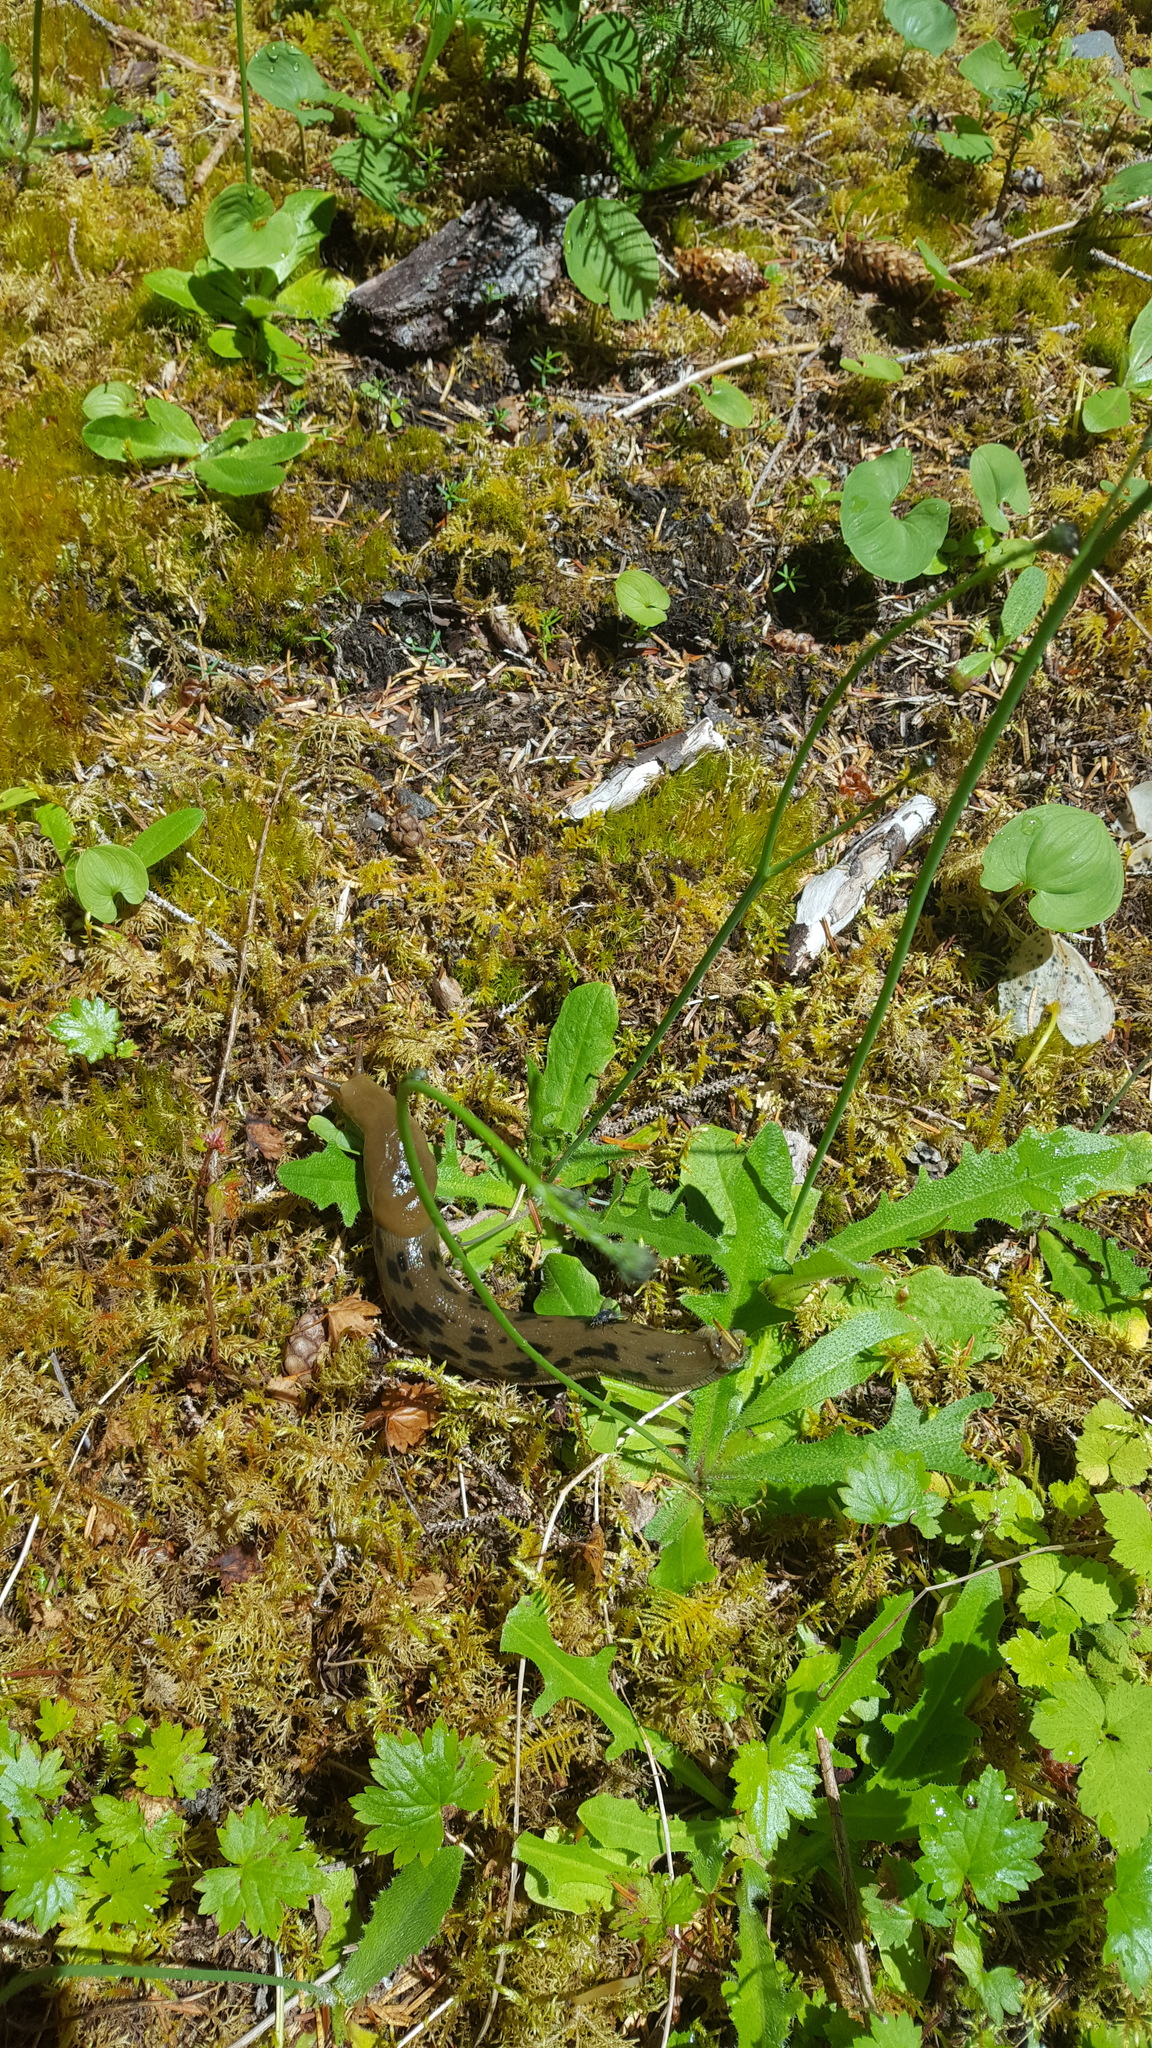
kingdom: Animalia
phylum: Mollusca
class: Gastropoda
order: Stylommatophora
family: Ariolimacidae
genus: Ariolimax
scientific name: Ariolimax columbianus
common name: Pacific banana slug
